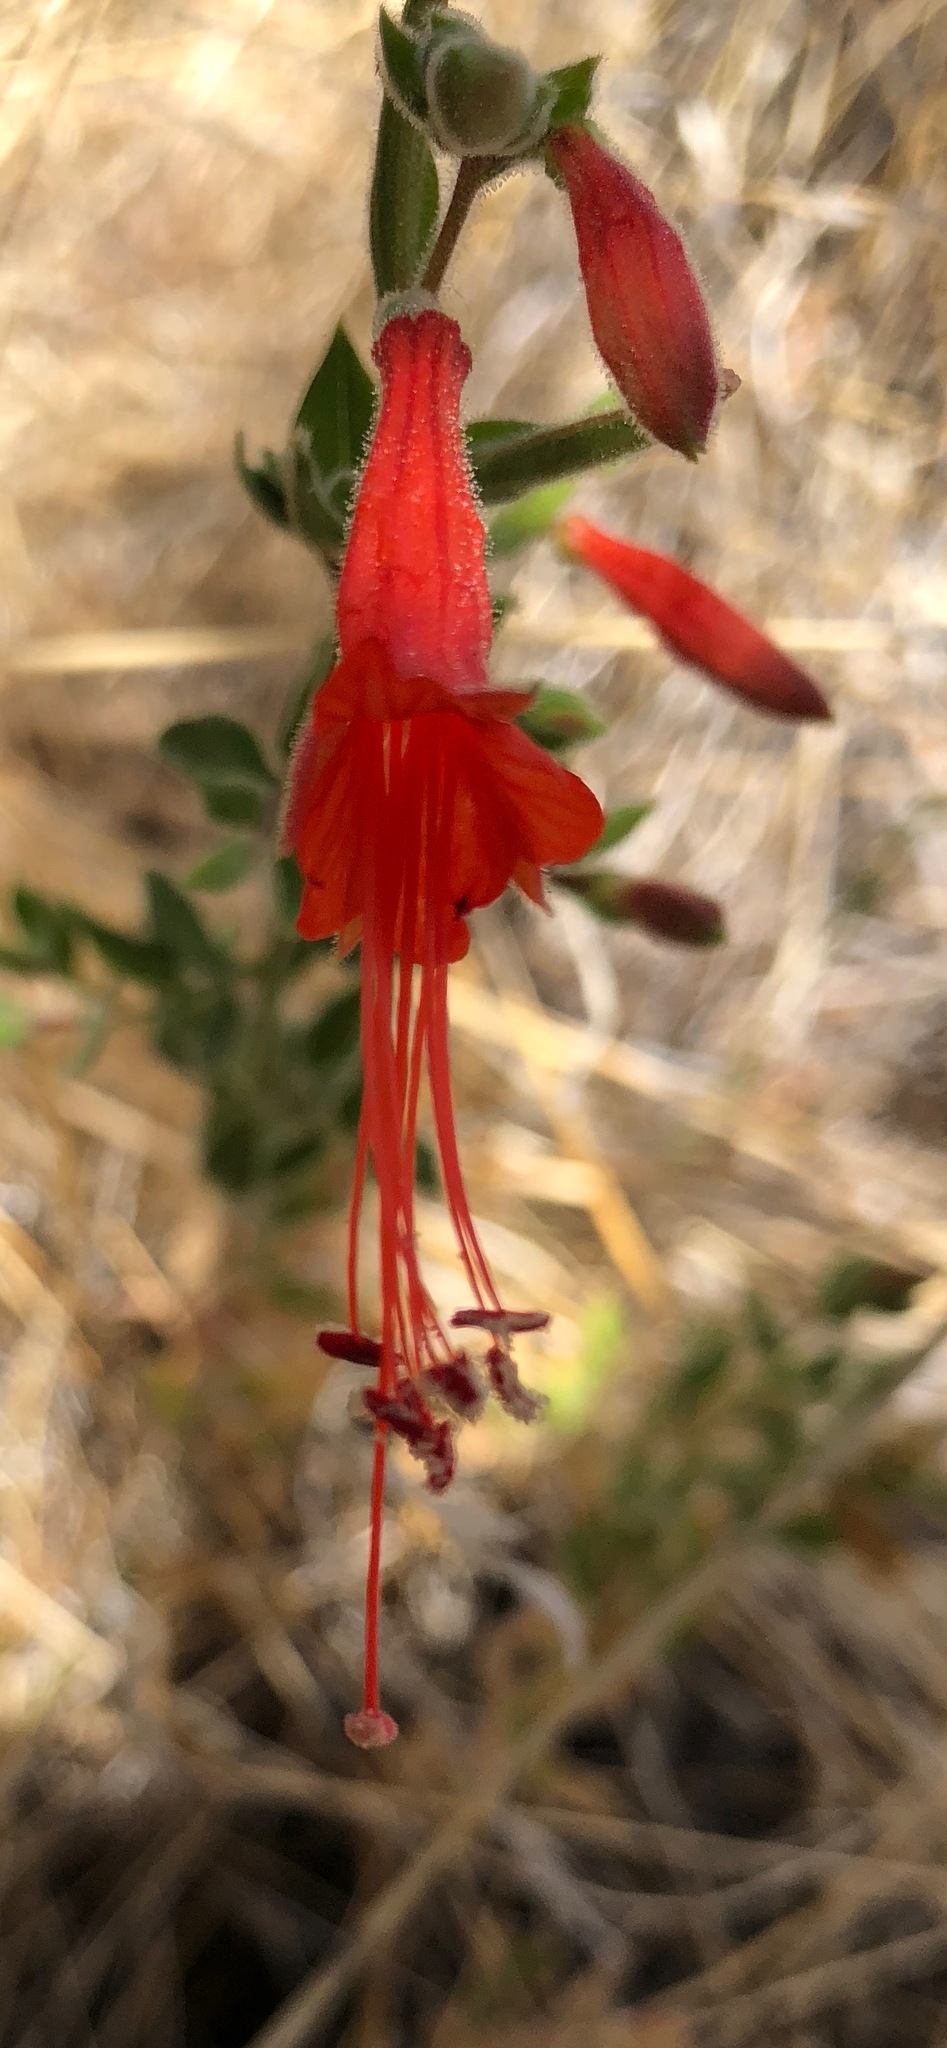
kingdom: Plantae
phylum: Tracheophyta
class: Magnoliopsida
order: Myrtales
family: Onagraceae
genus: Epilobium
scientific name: Epilobium canum
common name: California-fuchsia
